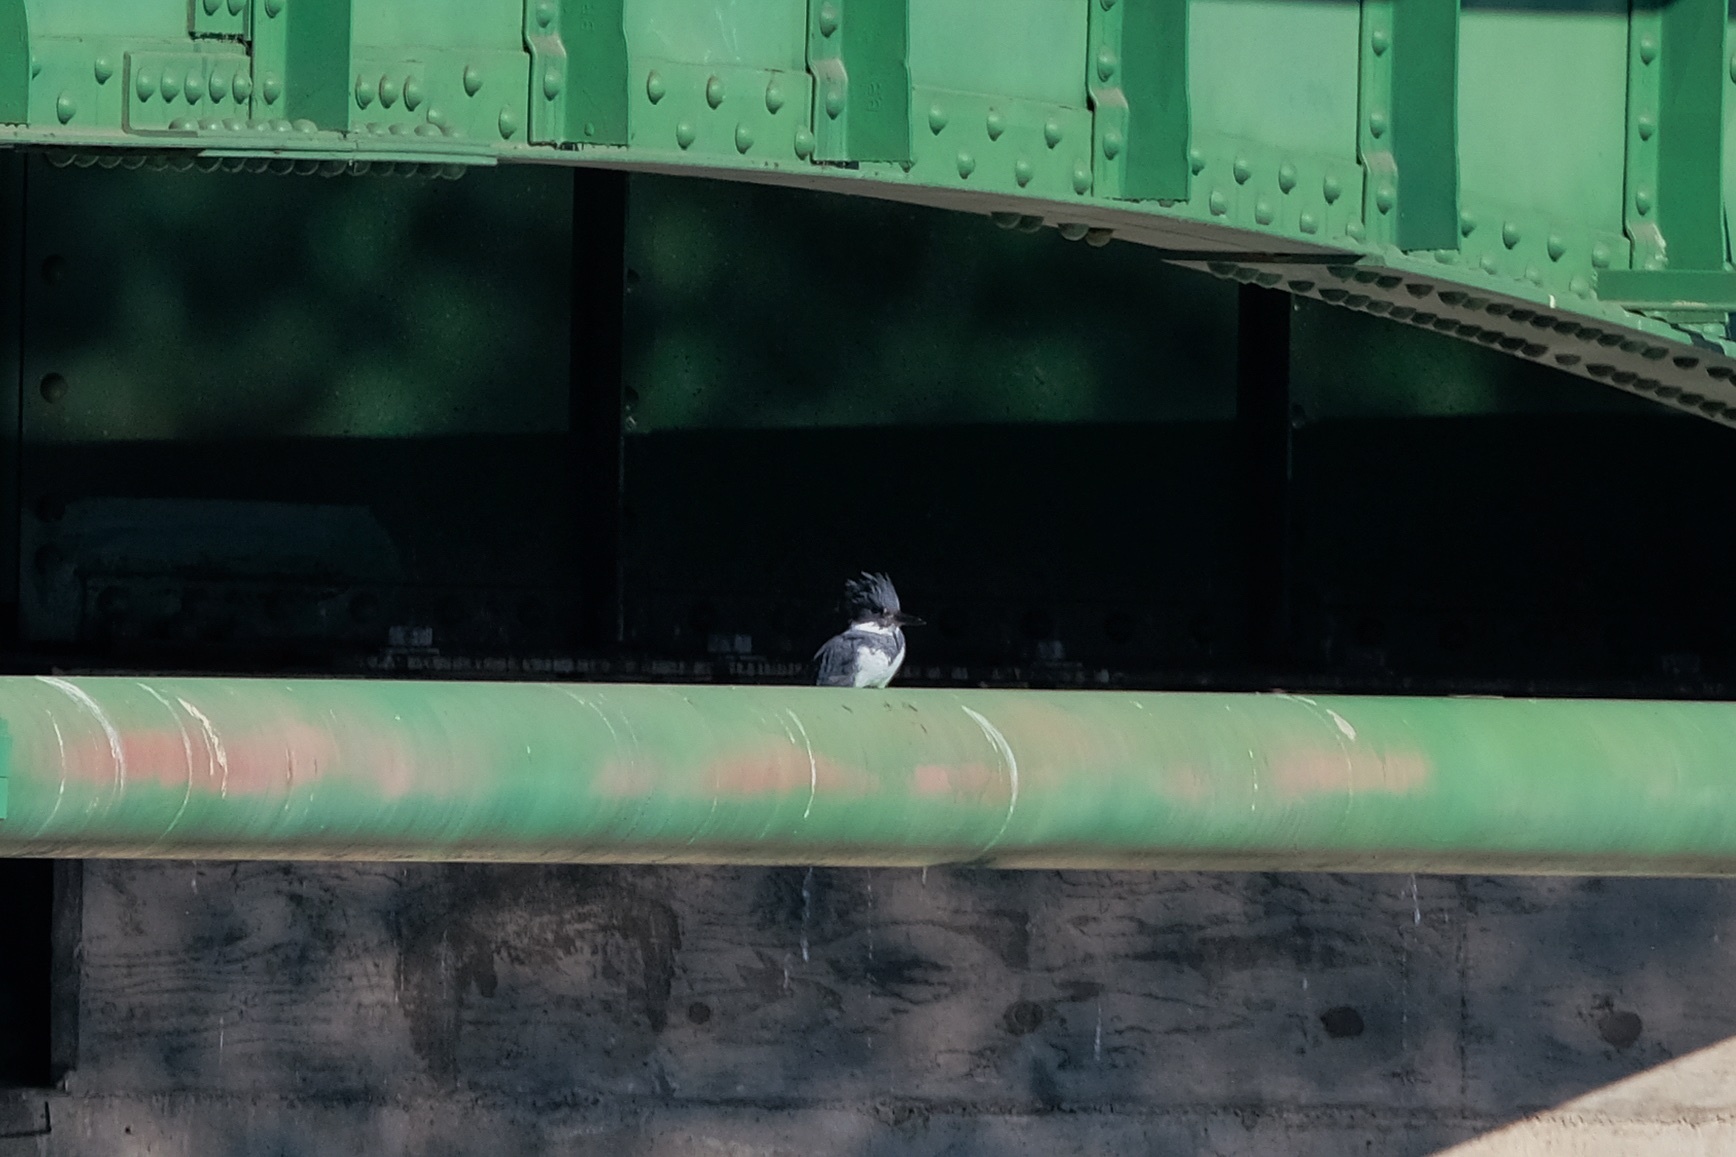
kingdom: Animalia
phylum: Chordata
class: Aves
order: Coraciiformes
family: Alcedinidae
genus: Megaceryle
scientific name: Megaceryle alcyon
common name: Belted kingfisher
